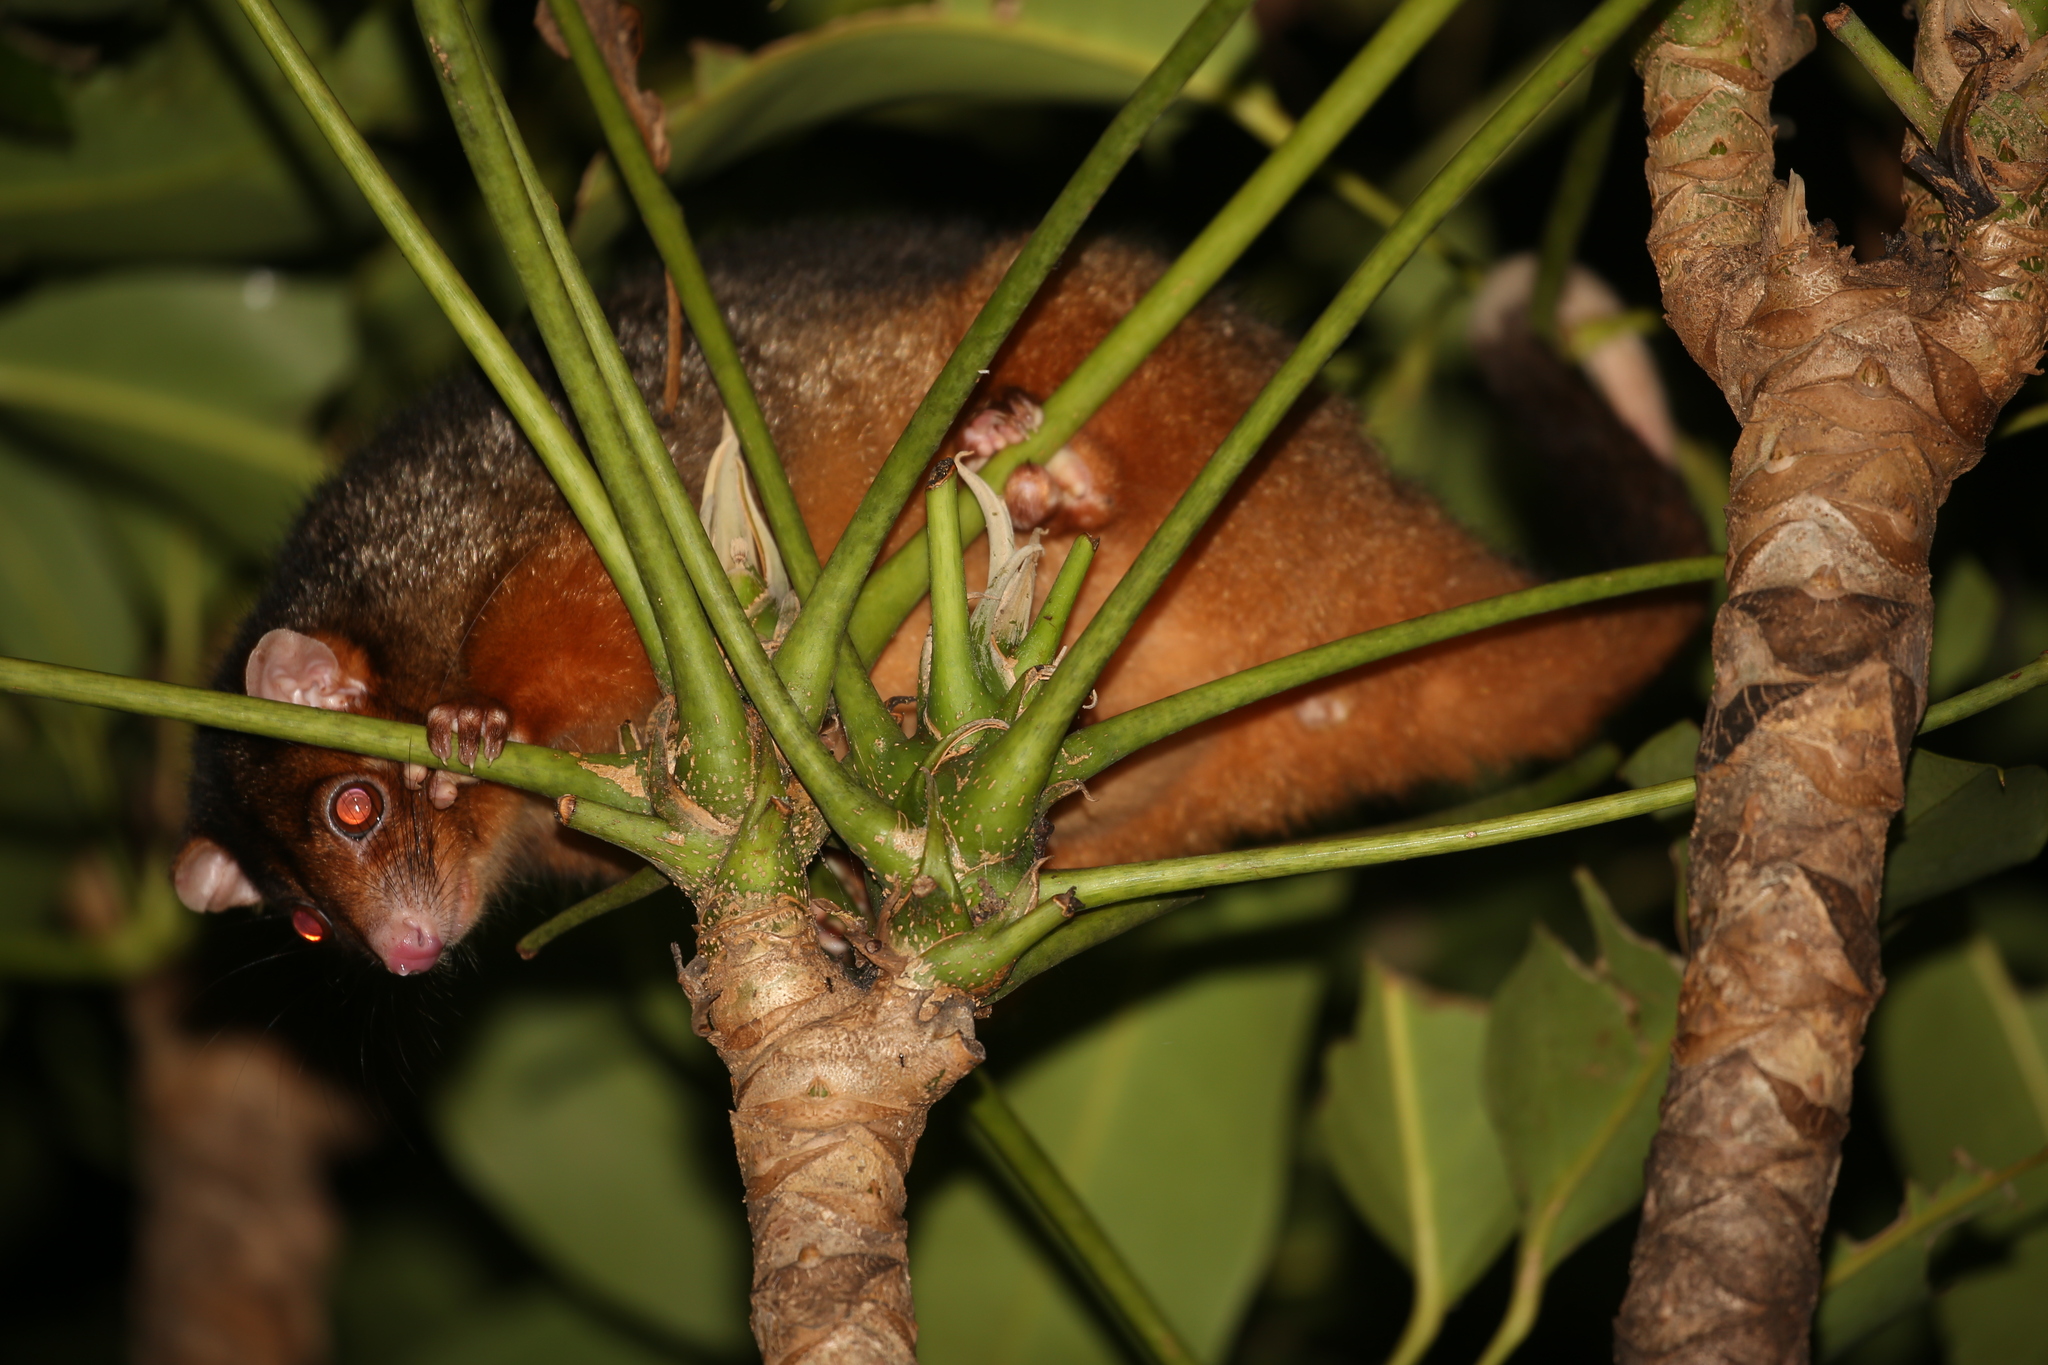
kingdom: Animalia
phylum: Chordata
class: Mammalia
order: Diprotodontia
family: Pseudocheiridae
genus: Pseudocheirus
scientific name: Pseudocheirus peregrinus
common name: Common ringtail possum
